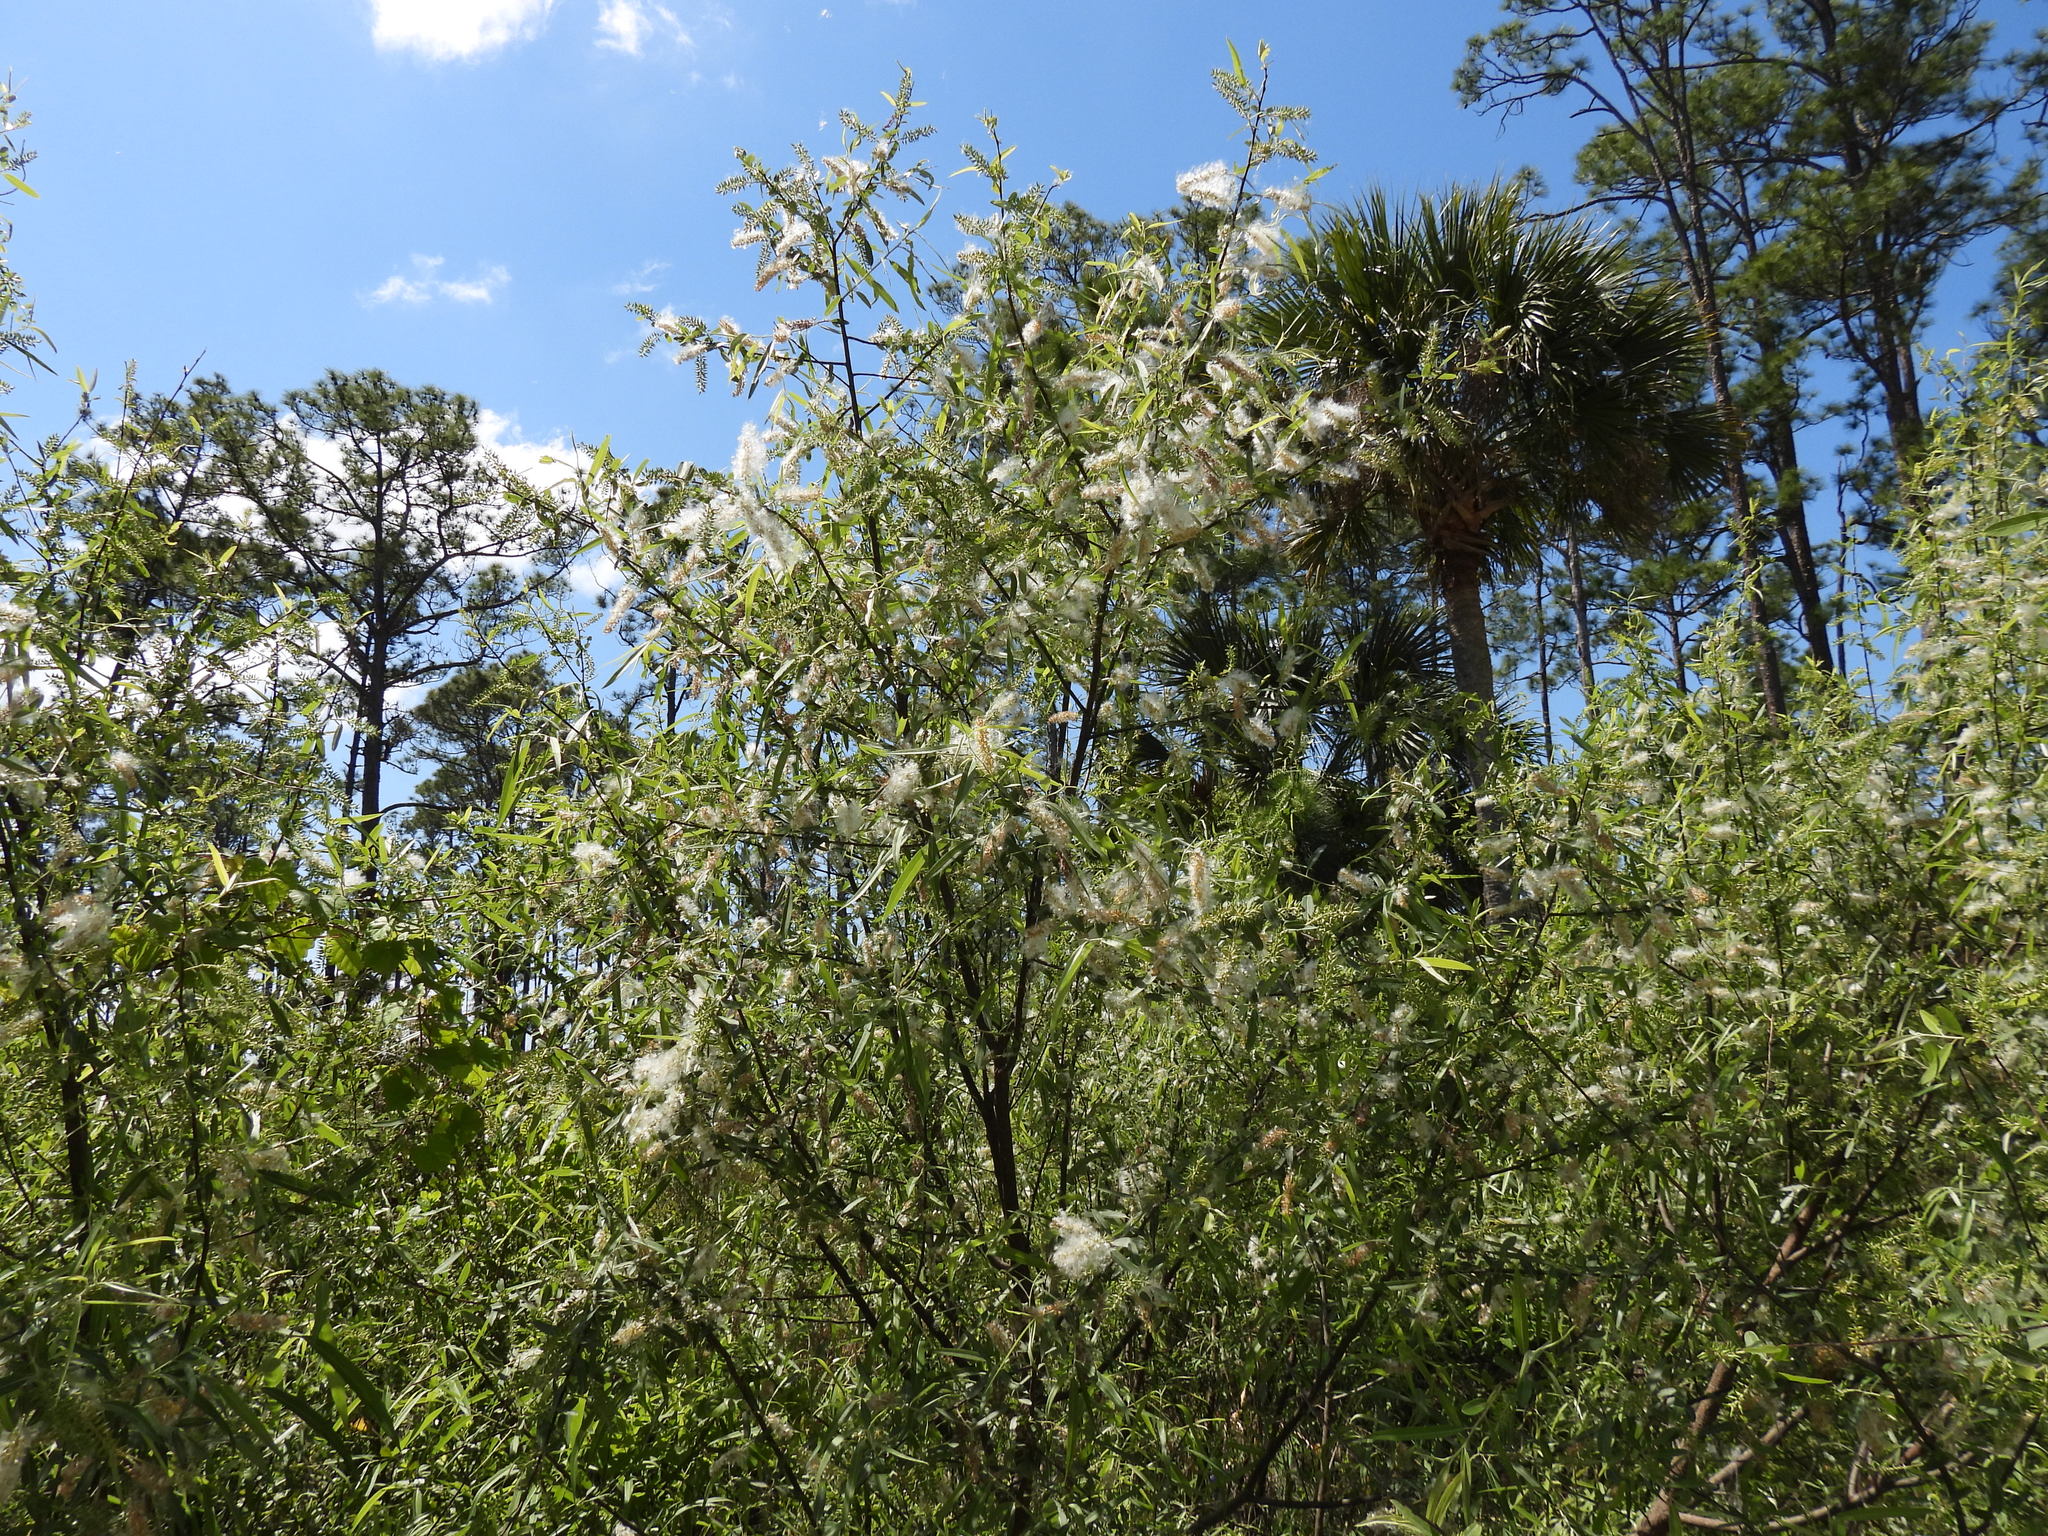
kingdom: Plantae
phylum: Tracheophyta
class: Magnoliopsida
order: Malpighiales
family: Salicaceae
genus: Salix
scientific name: Salix caroliniana
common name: Carolina willow
